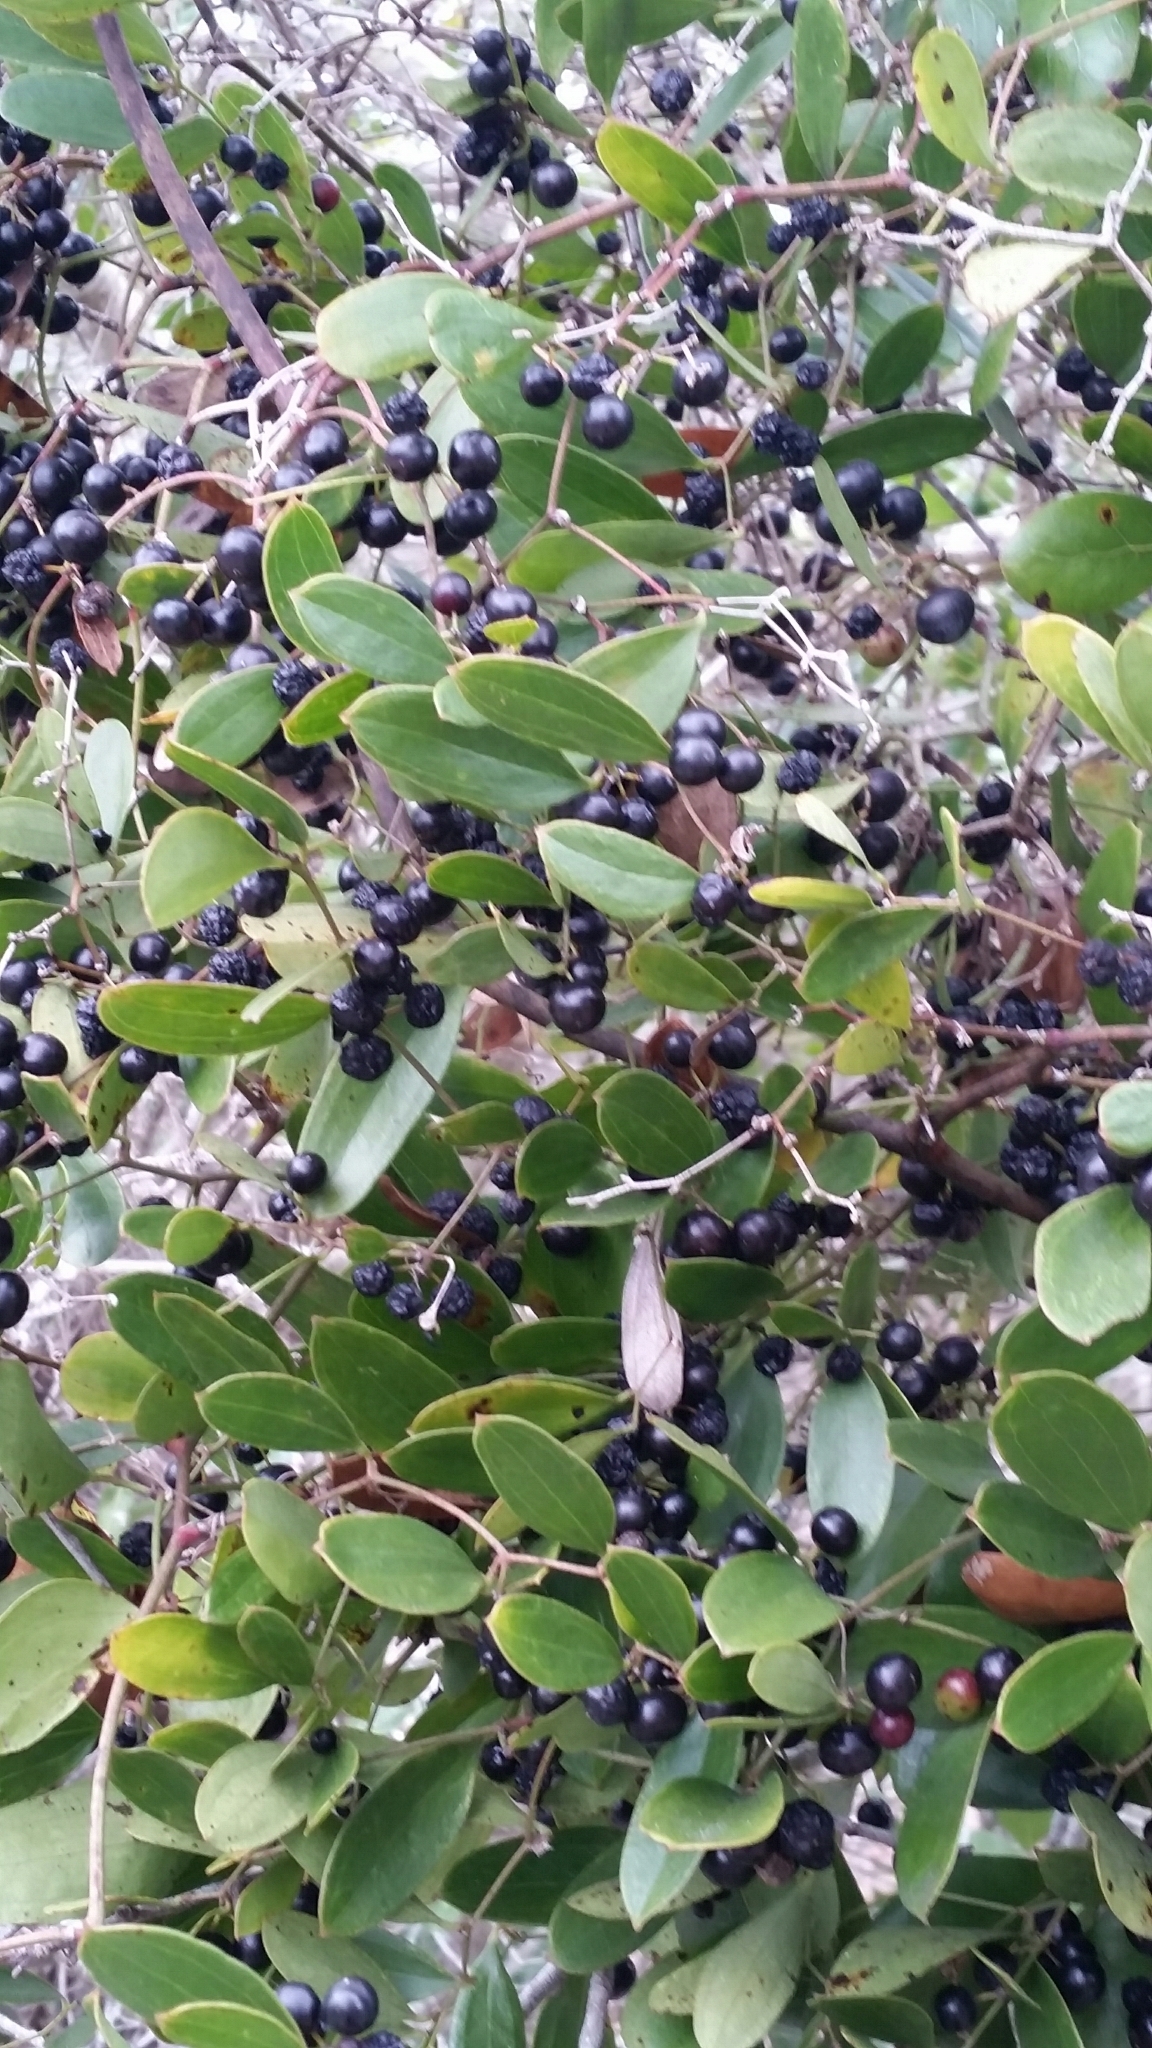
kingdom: Plantae
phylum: Tracheophyta
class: Liliopsida
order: Liliales
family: Smilacaceae
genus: Smilax
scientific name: Smilax auriculata
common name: Wild bamboo
